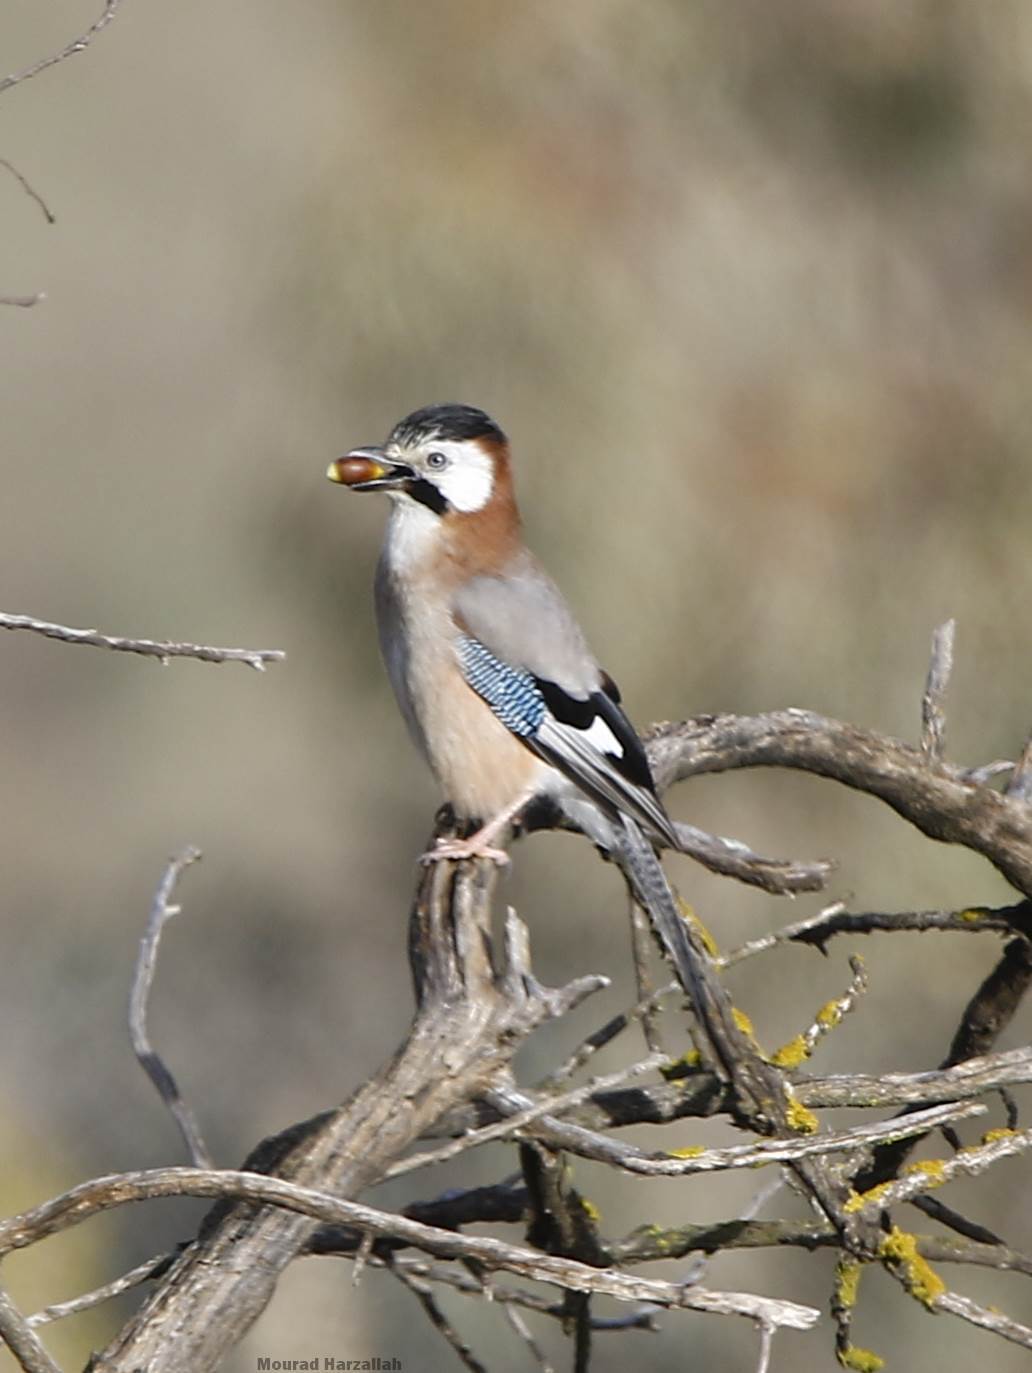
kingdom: Animalia
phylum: Chordata
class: Aves
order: Passeriformes
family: Corvidae
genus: Garrulus
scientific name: Garrulus glandarius
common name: Eurasian jay
